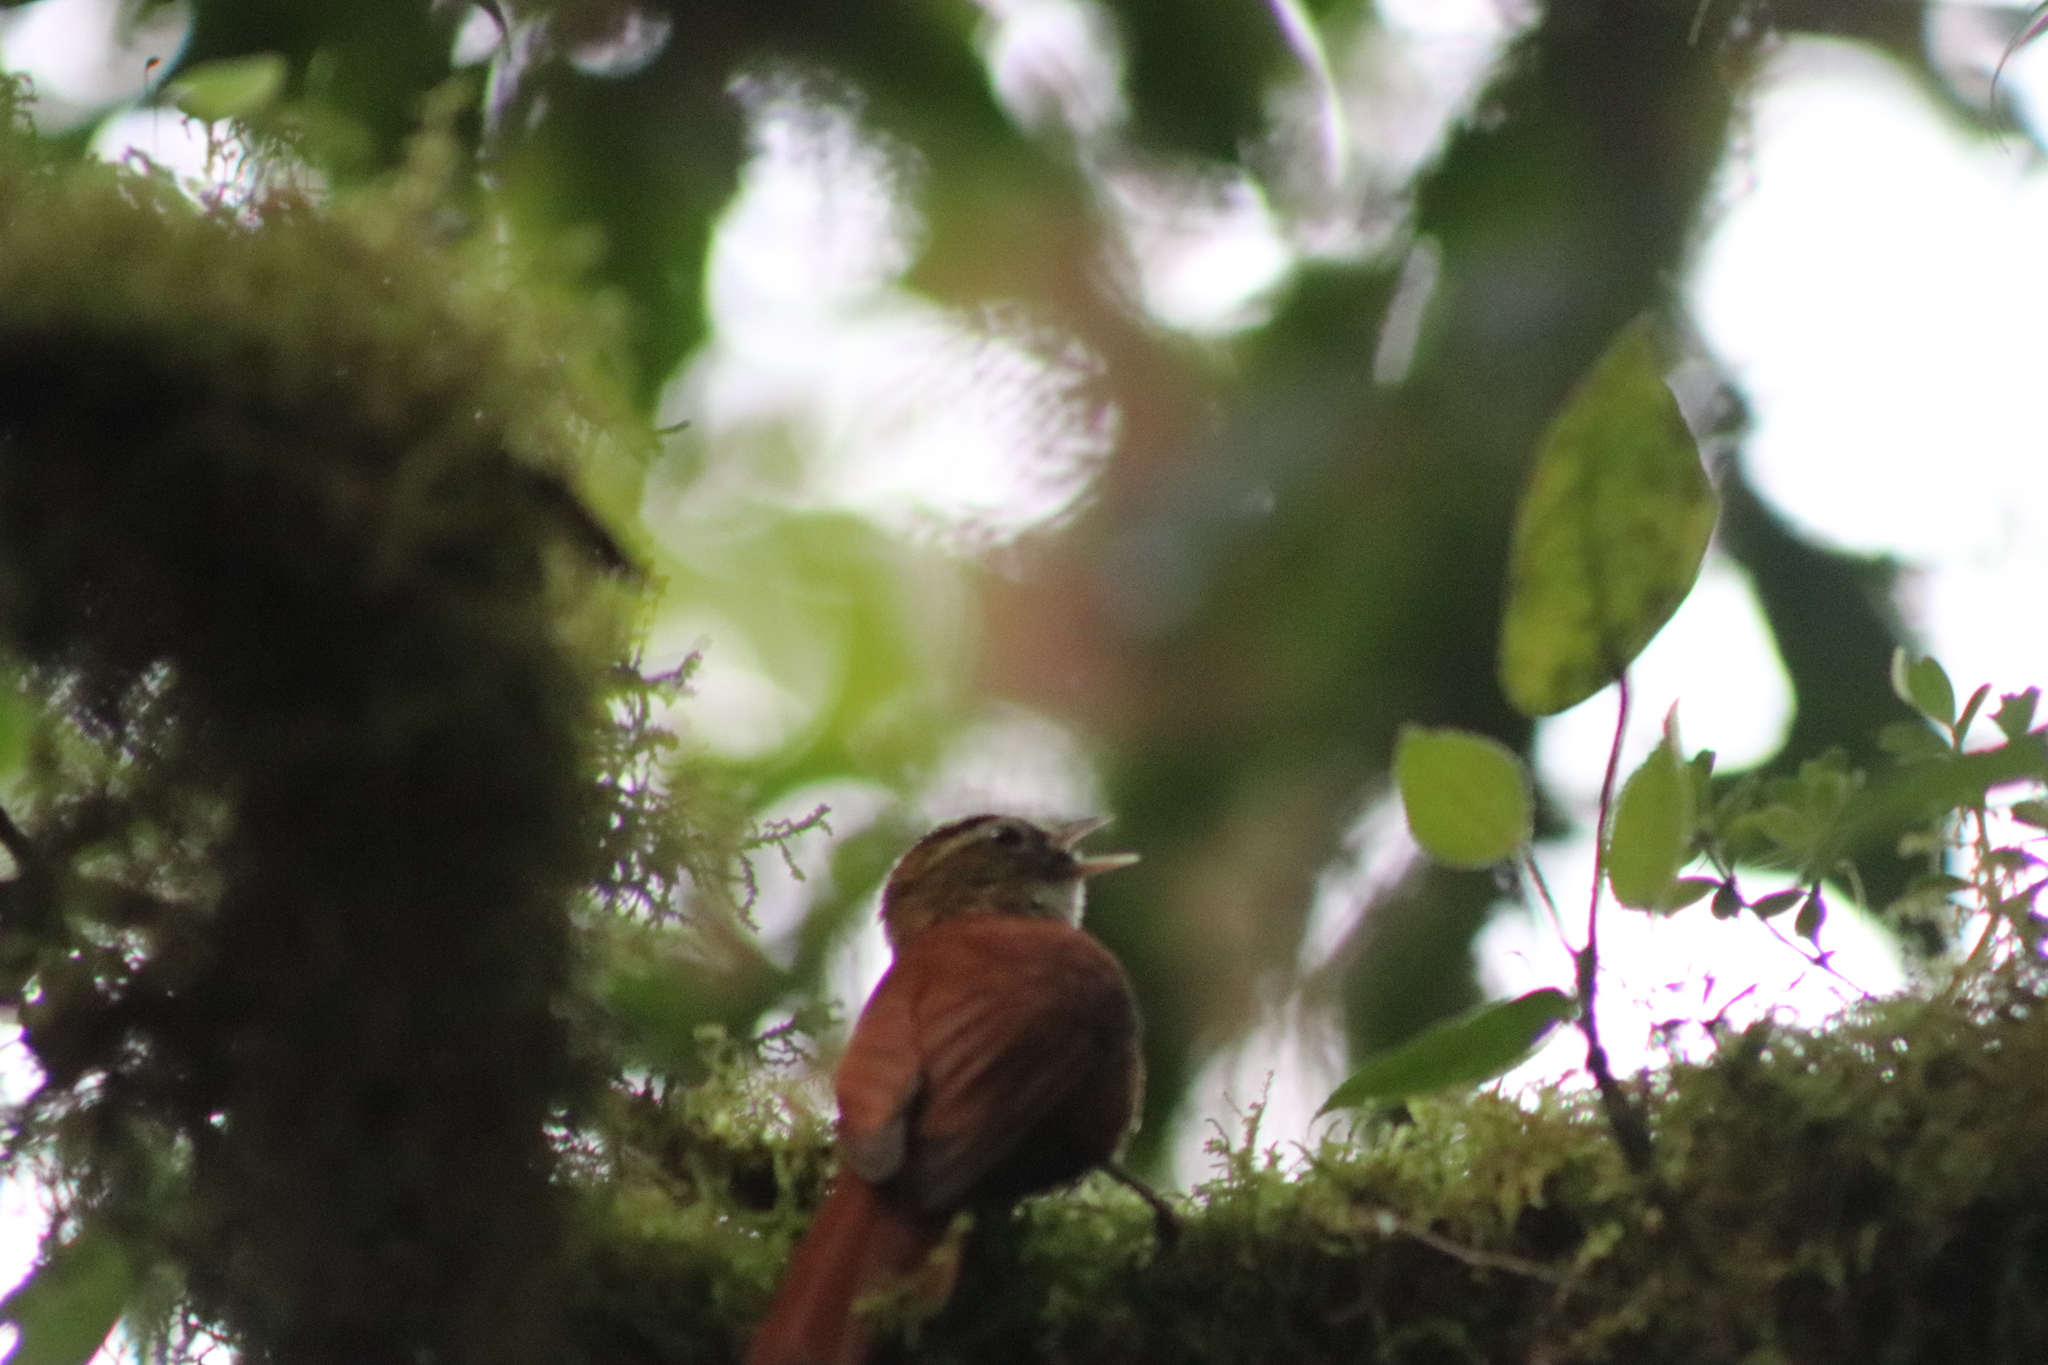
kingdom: Animalia
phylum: Chordata
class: Aves
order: Passeriformes
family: Furnariidae
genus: Margarornis
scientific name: Margarornis rubiginosus
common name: Ruddy treerunner
